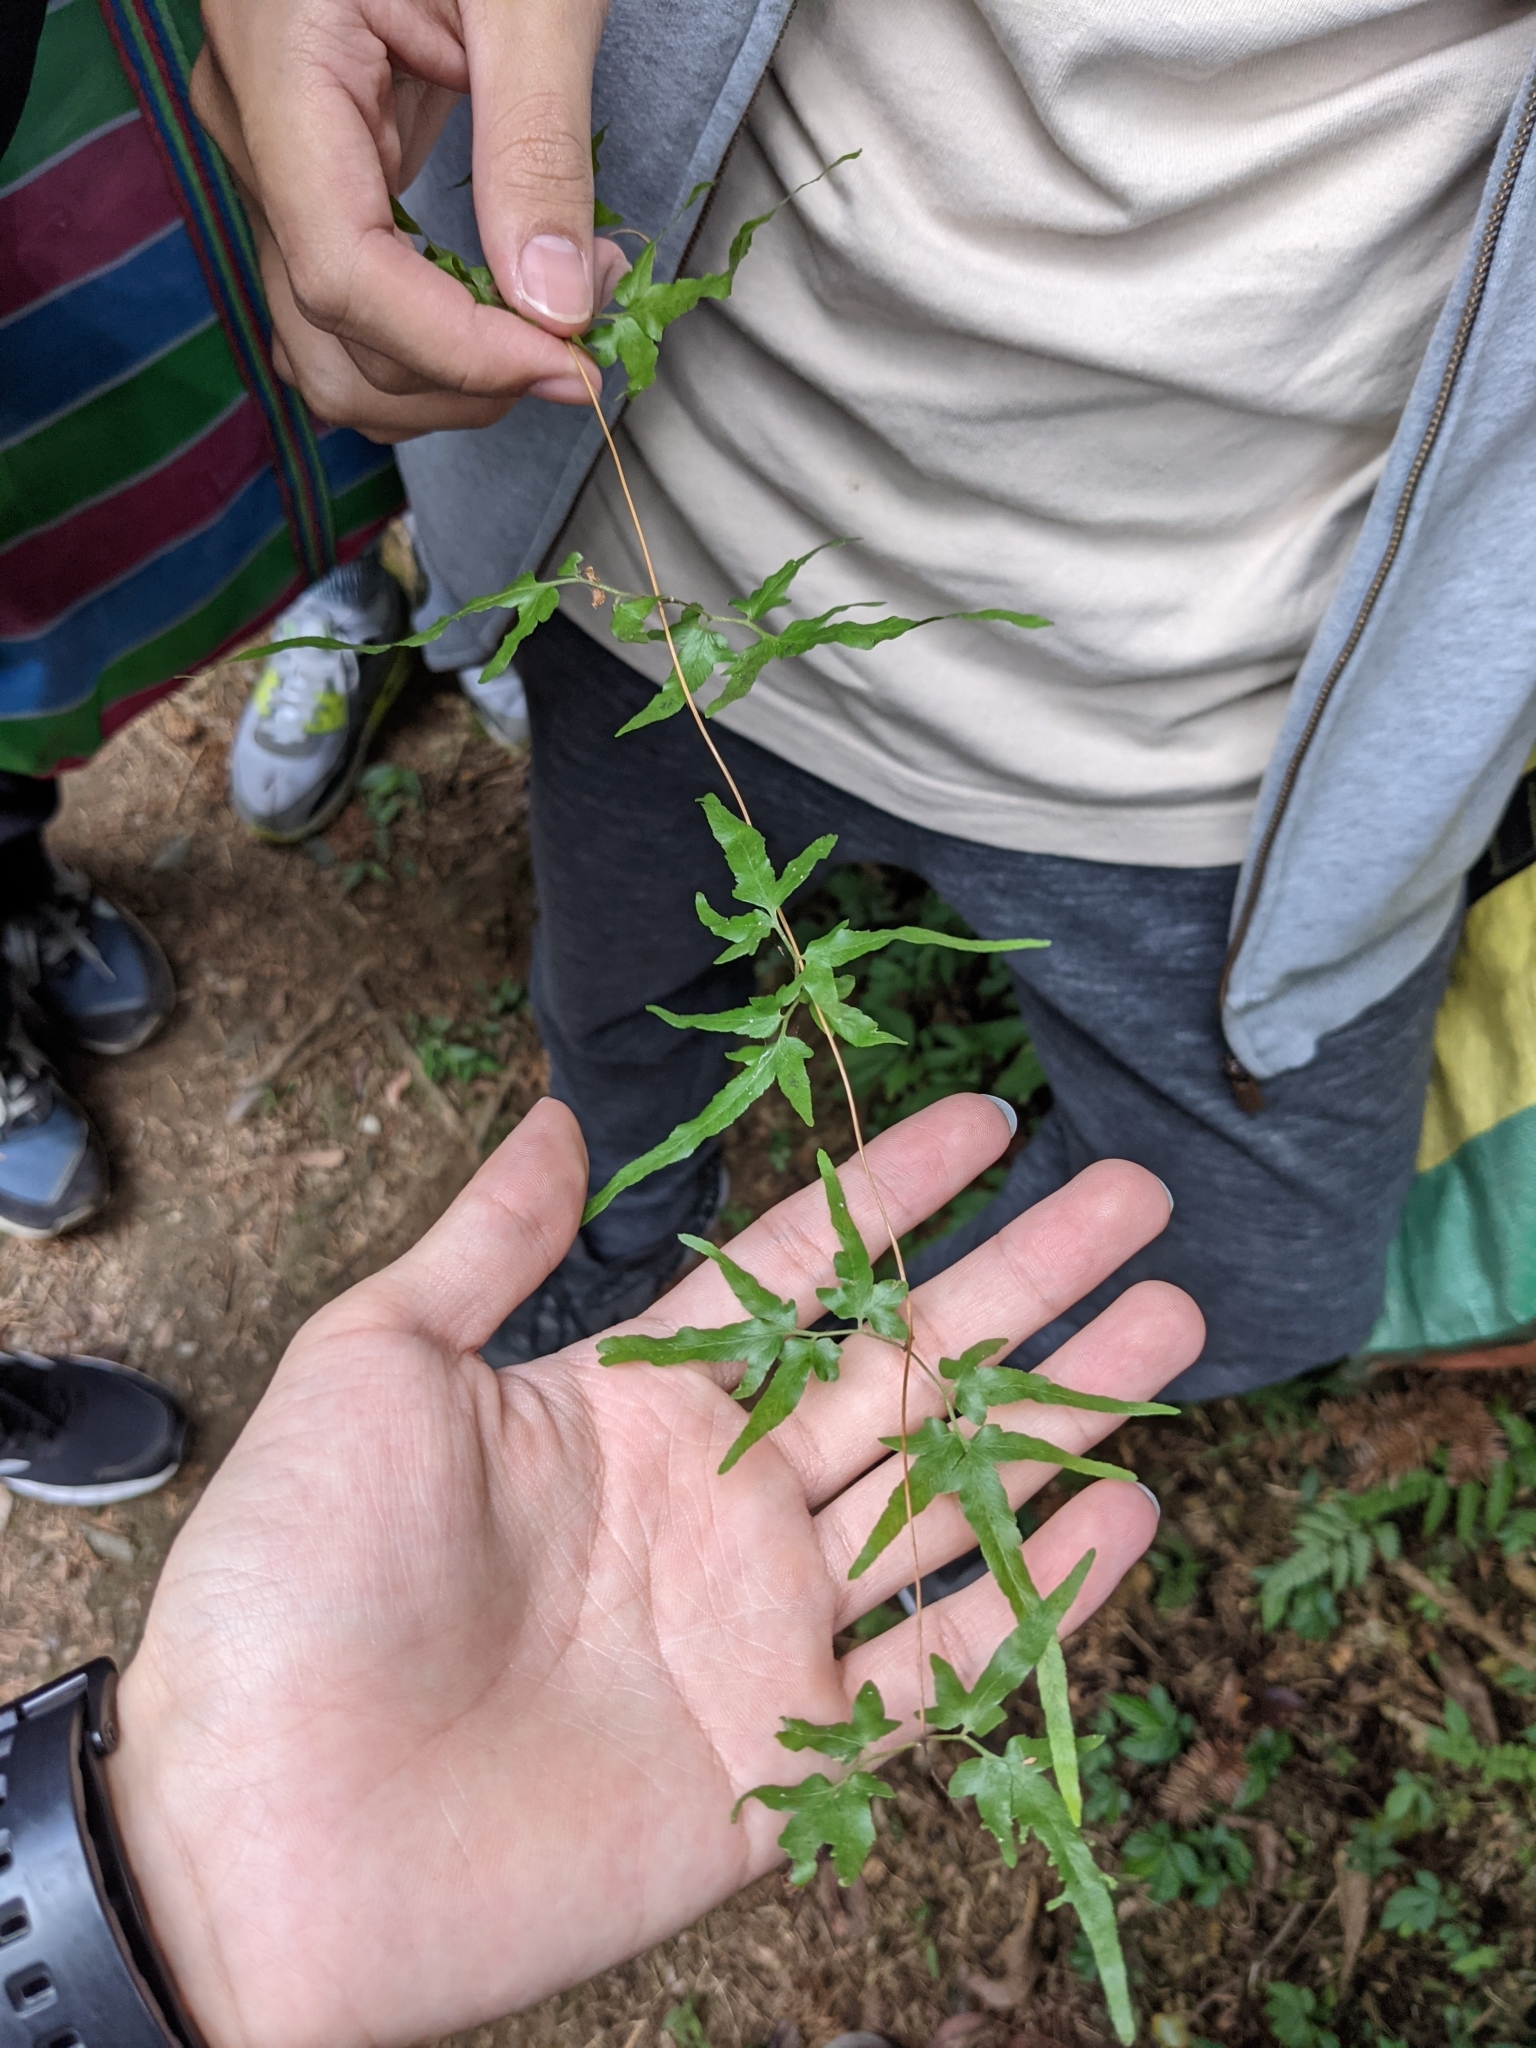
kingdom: Plantae
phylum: Tracheophyta
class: Polypodiopsida
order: Schizaeales
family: Lygodiaceae
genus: Lygodium
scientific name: Lygodium japonicum
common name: Japanese climbing fern
